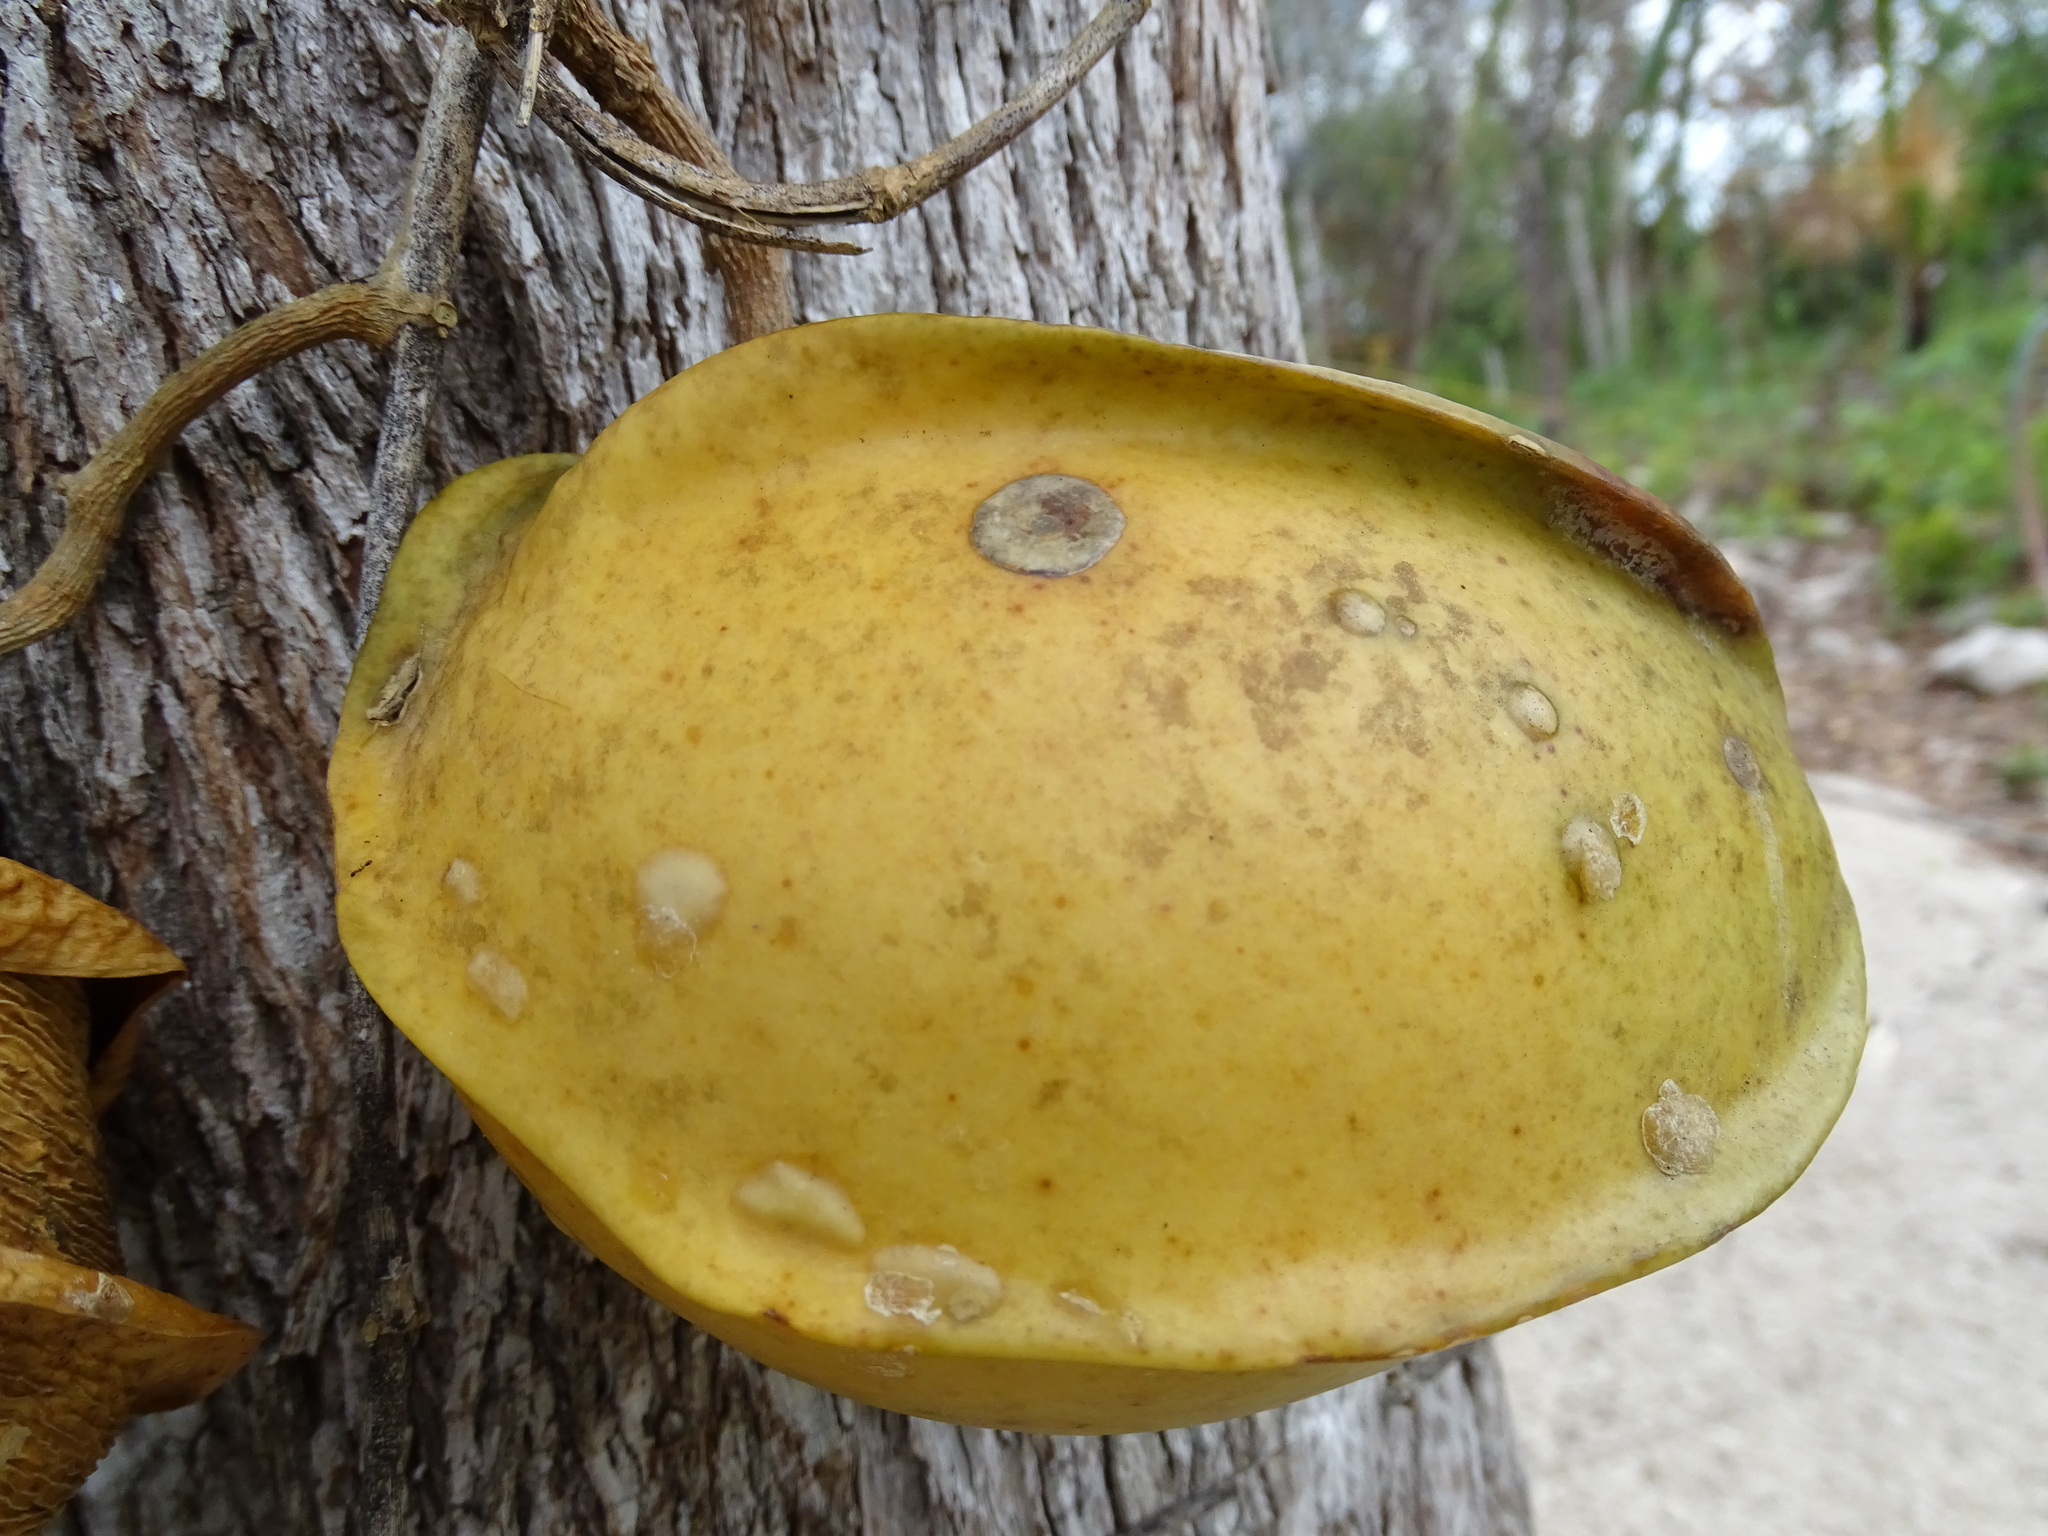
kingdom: Plantae
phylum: Tracheophyta
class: Magnoliopsida
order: Gentianales
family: Apocynaceae
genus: Gonolobus
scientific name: Gonolobus fraternus
